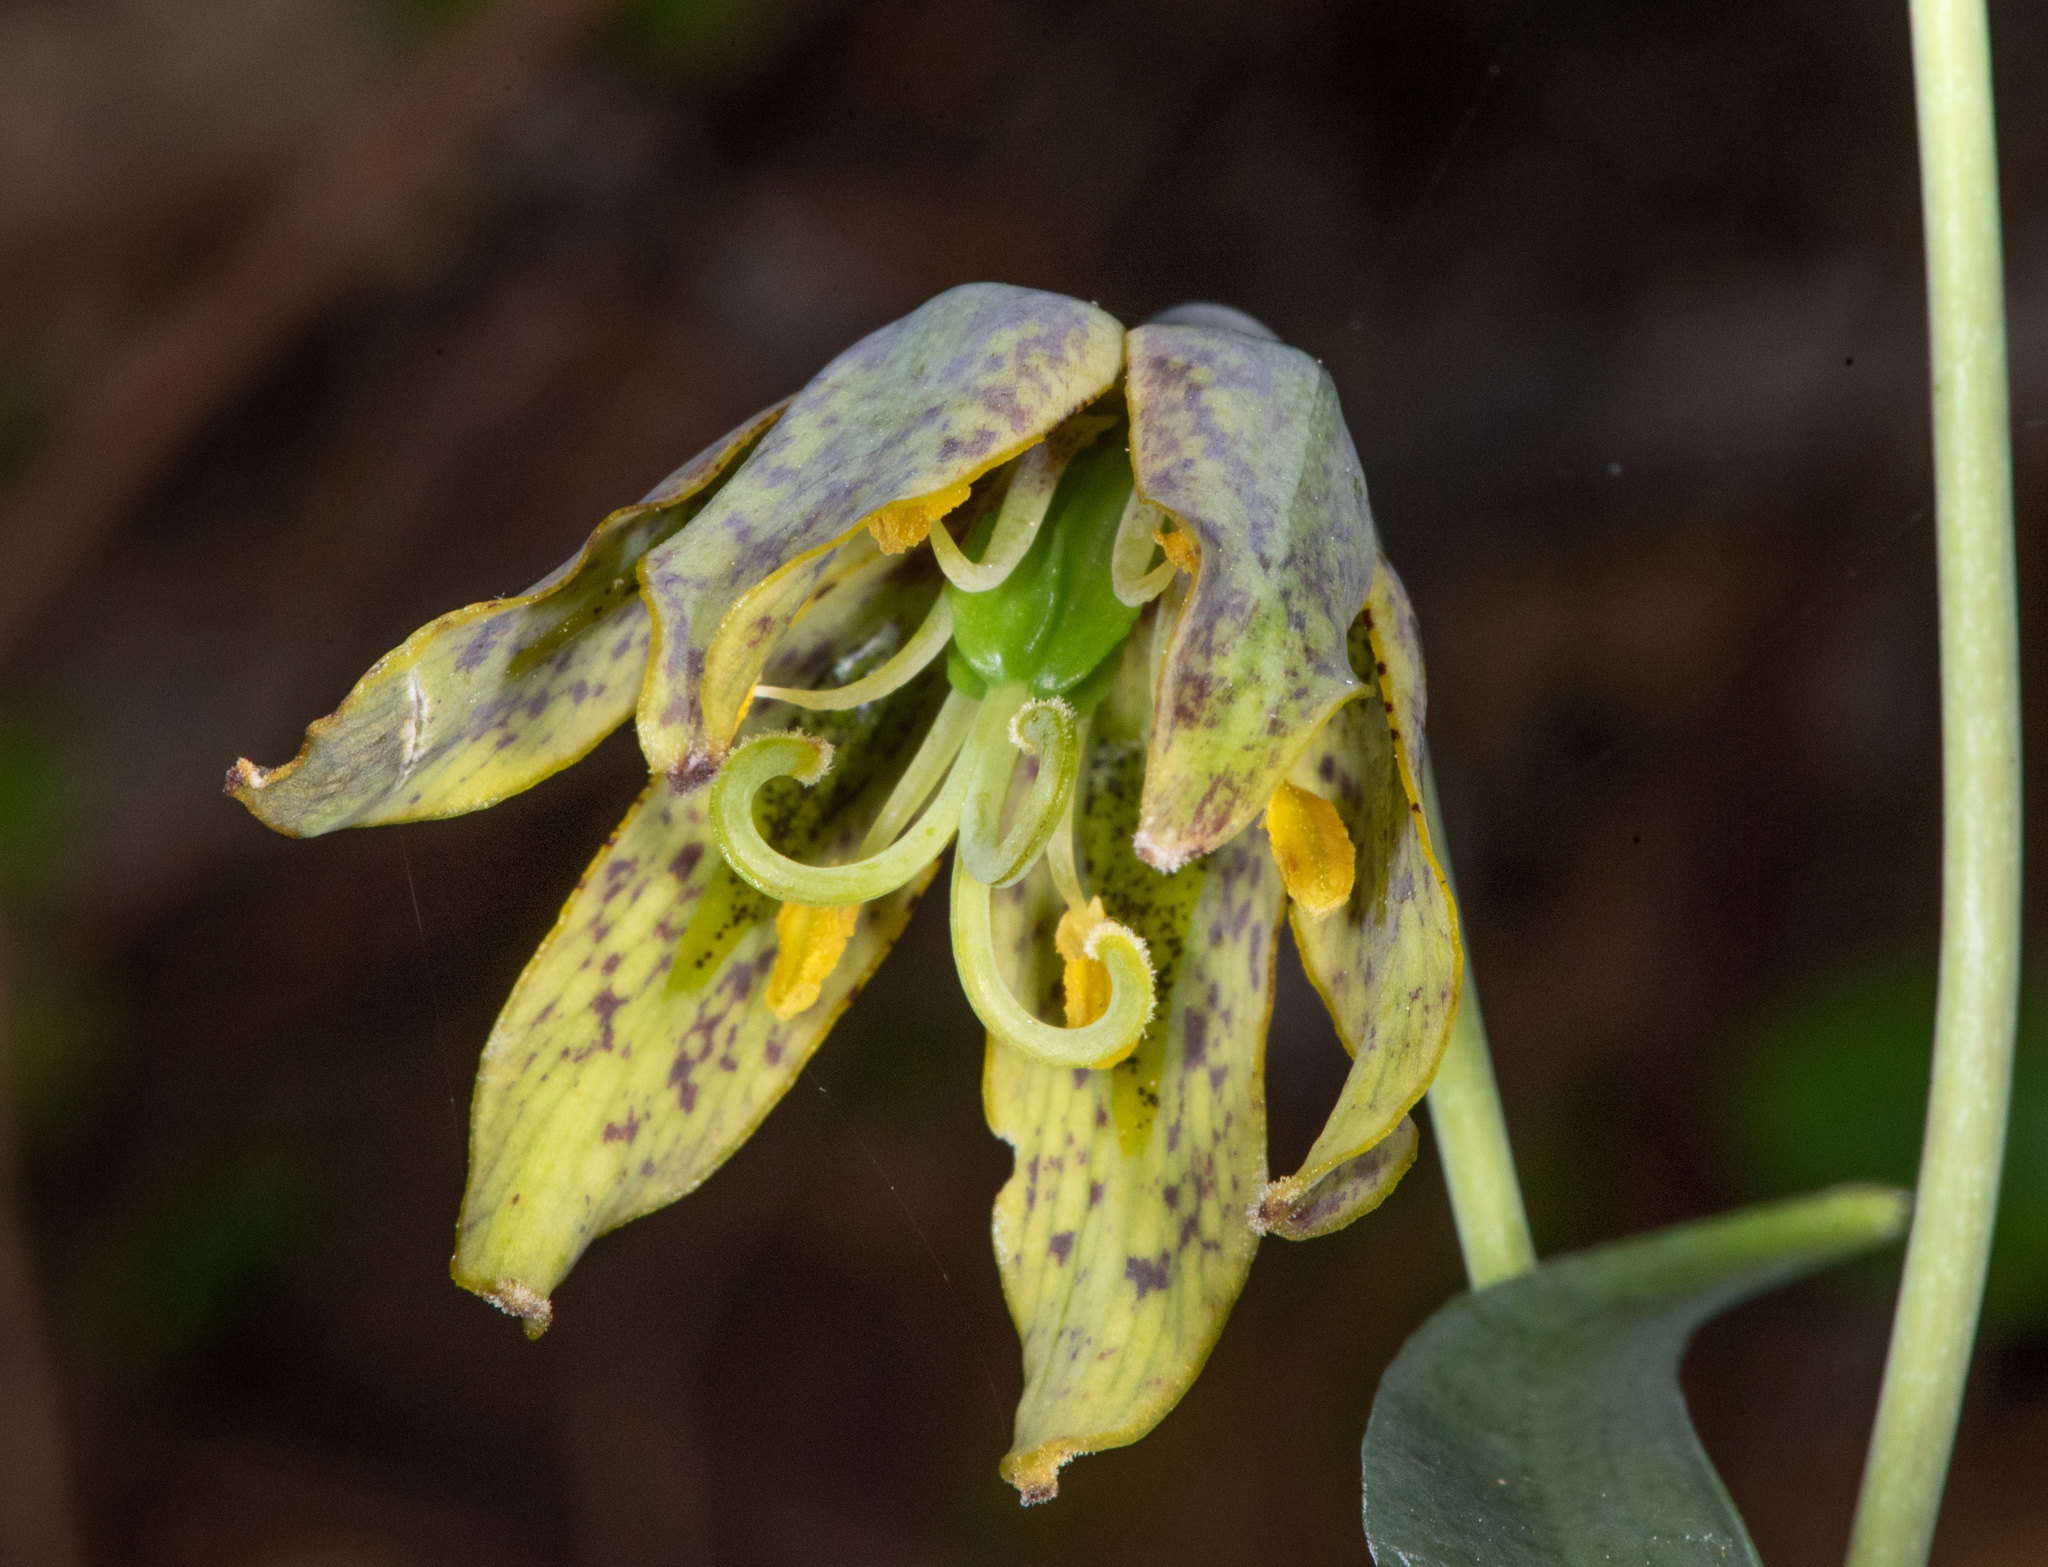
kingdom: Plantae
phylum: Tracheophyta
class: Liliopsida
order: Liliales
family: Liliaceae
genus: Fritillaria
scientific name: Fritillaria affinis
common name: Ojai fritillary
